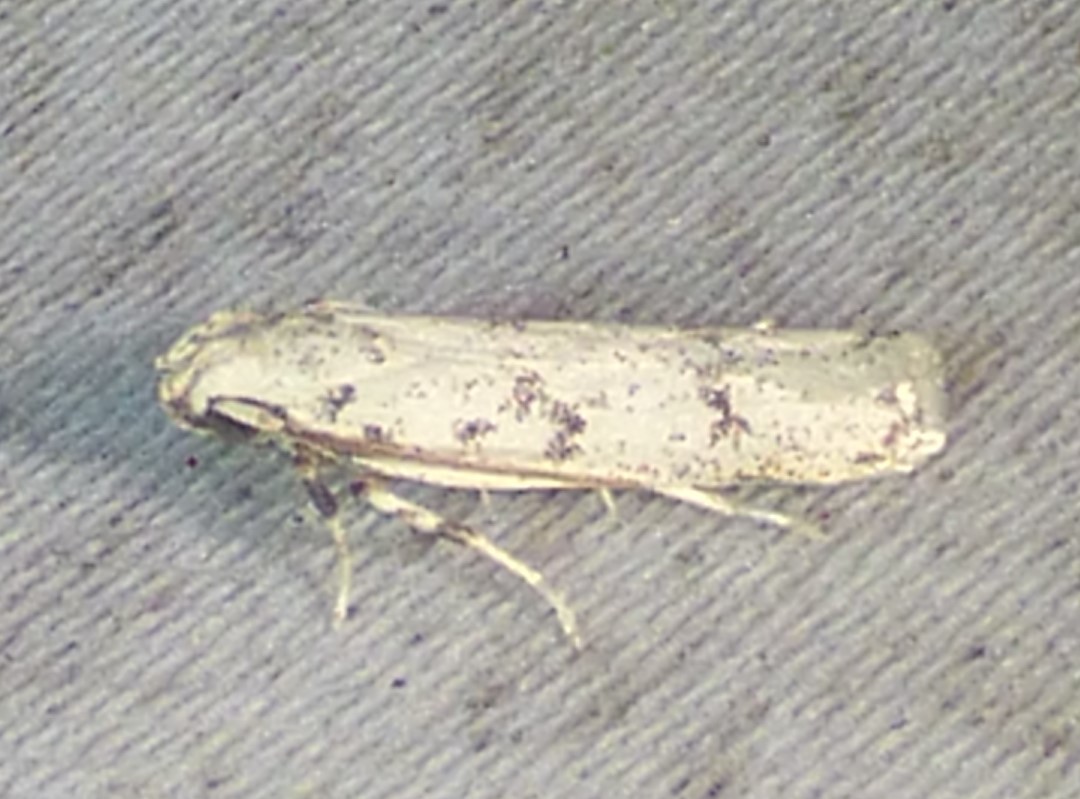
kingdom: Animalia
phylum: Arthropoda
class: Insecta
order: Lepidoptera
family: Autostichidae
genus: Glyphidocera
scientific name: Glyphidocera lactiflosella
